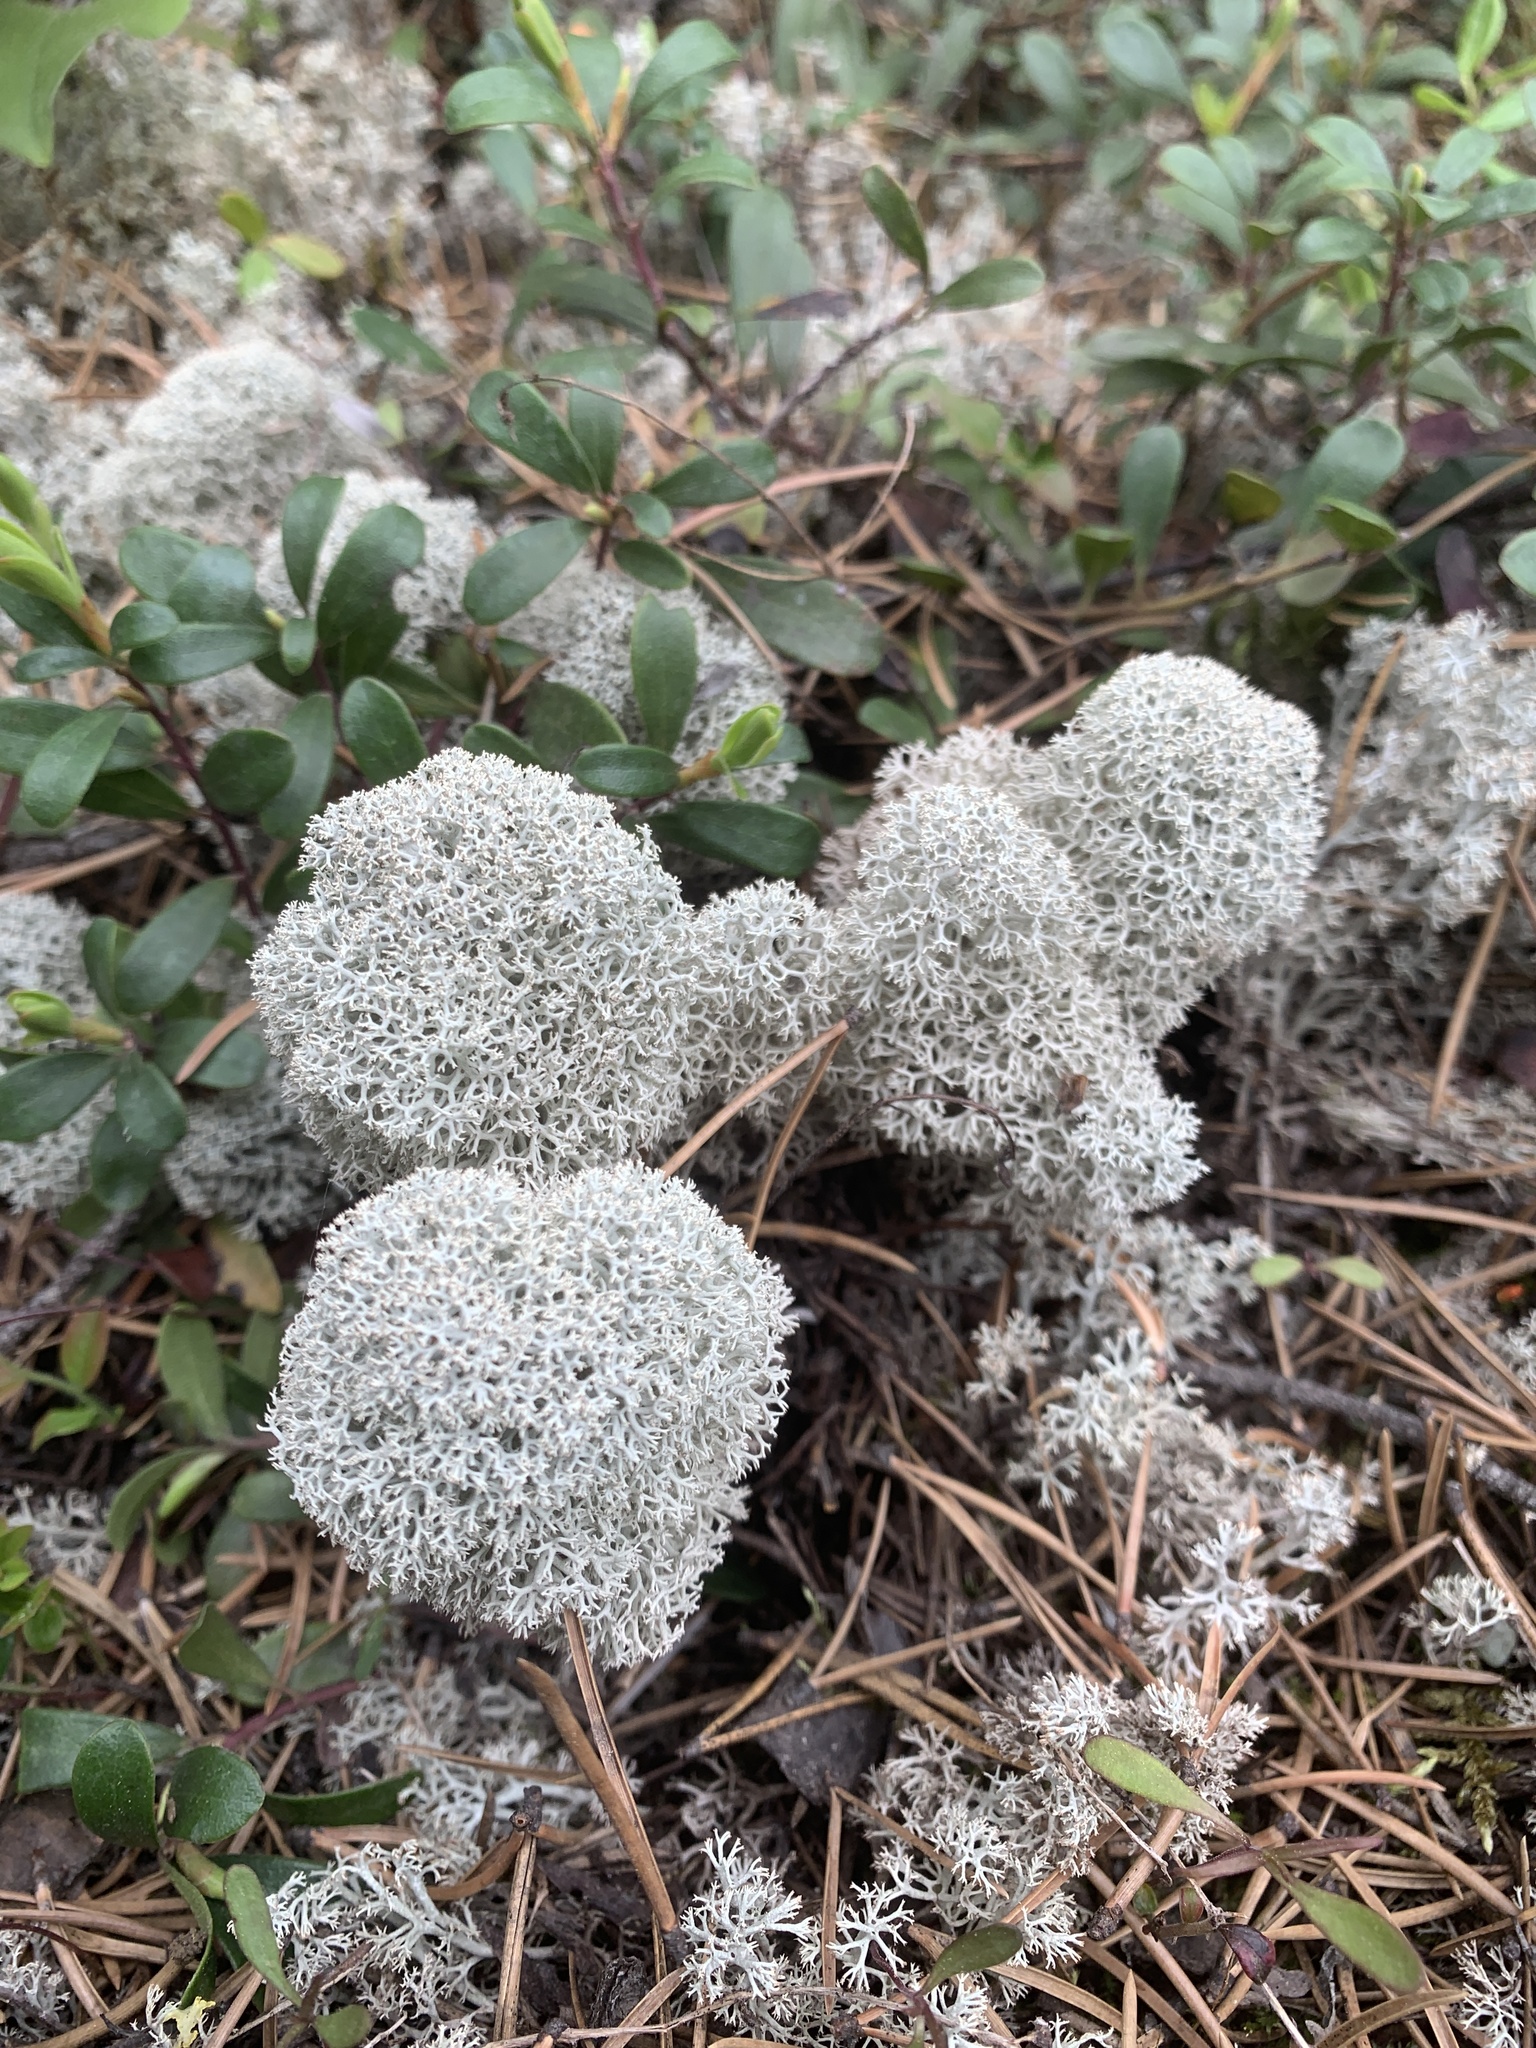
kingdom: Fungi
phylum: Ascomycota
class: Lecanoromycetes
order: Lecanorales
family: Cladoniaceae
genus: Cladonia
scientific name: Cladonia stellaris
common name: Star-tipped reindeer lichen
